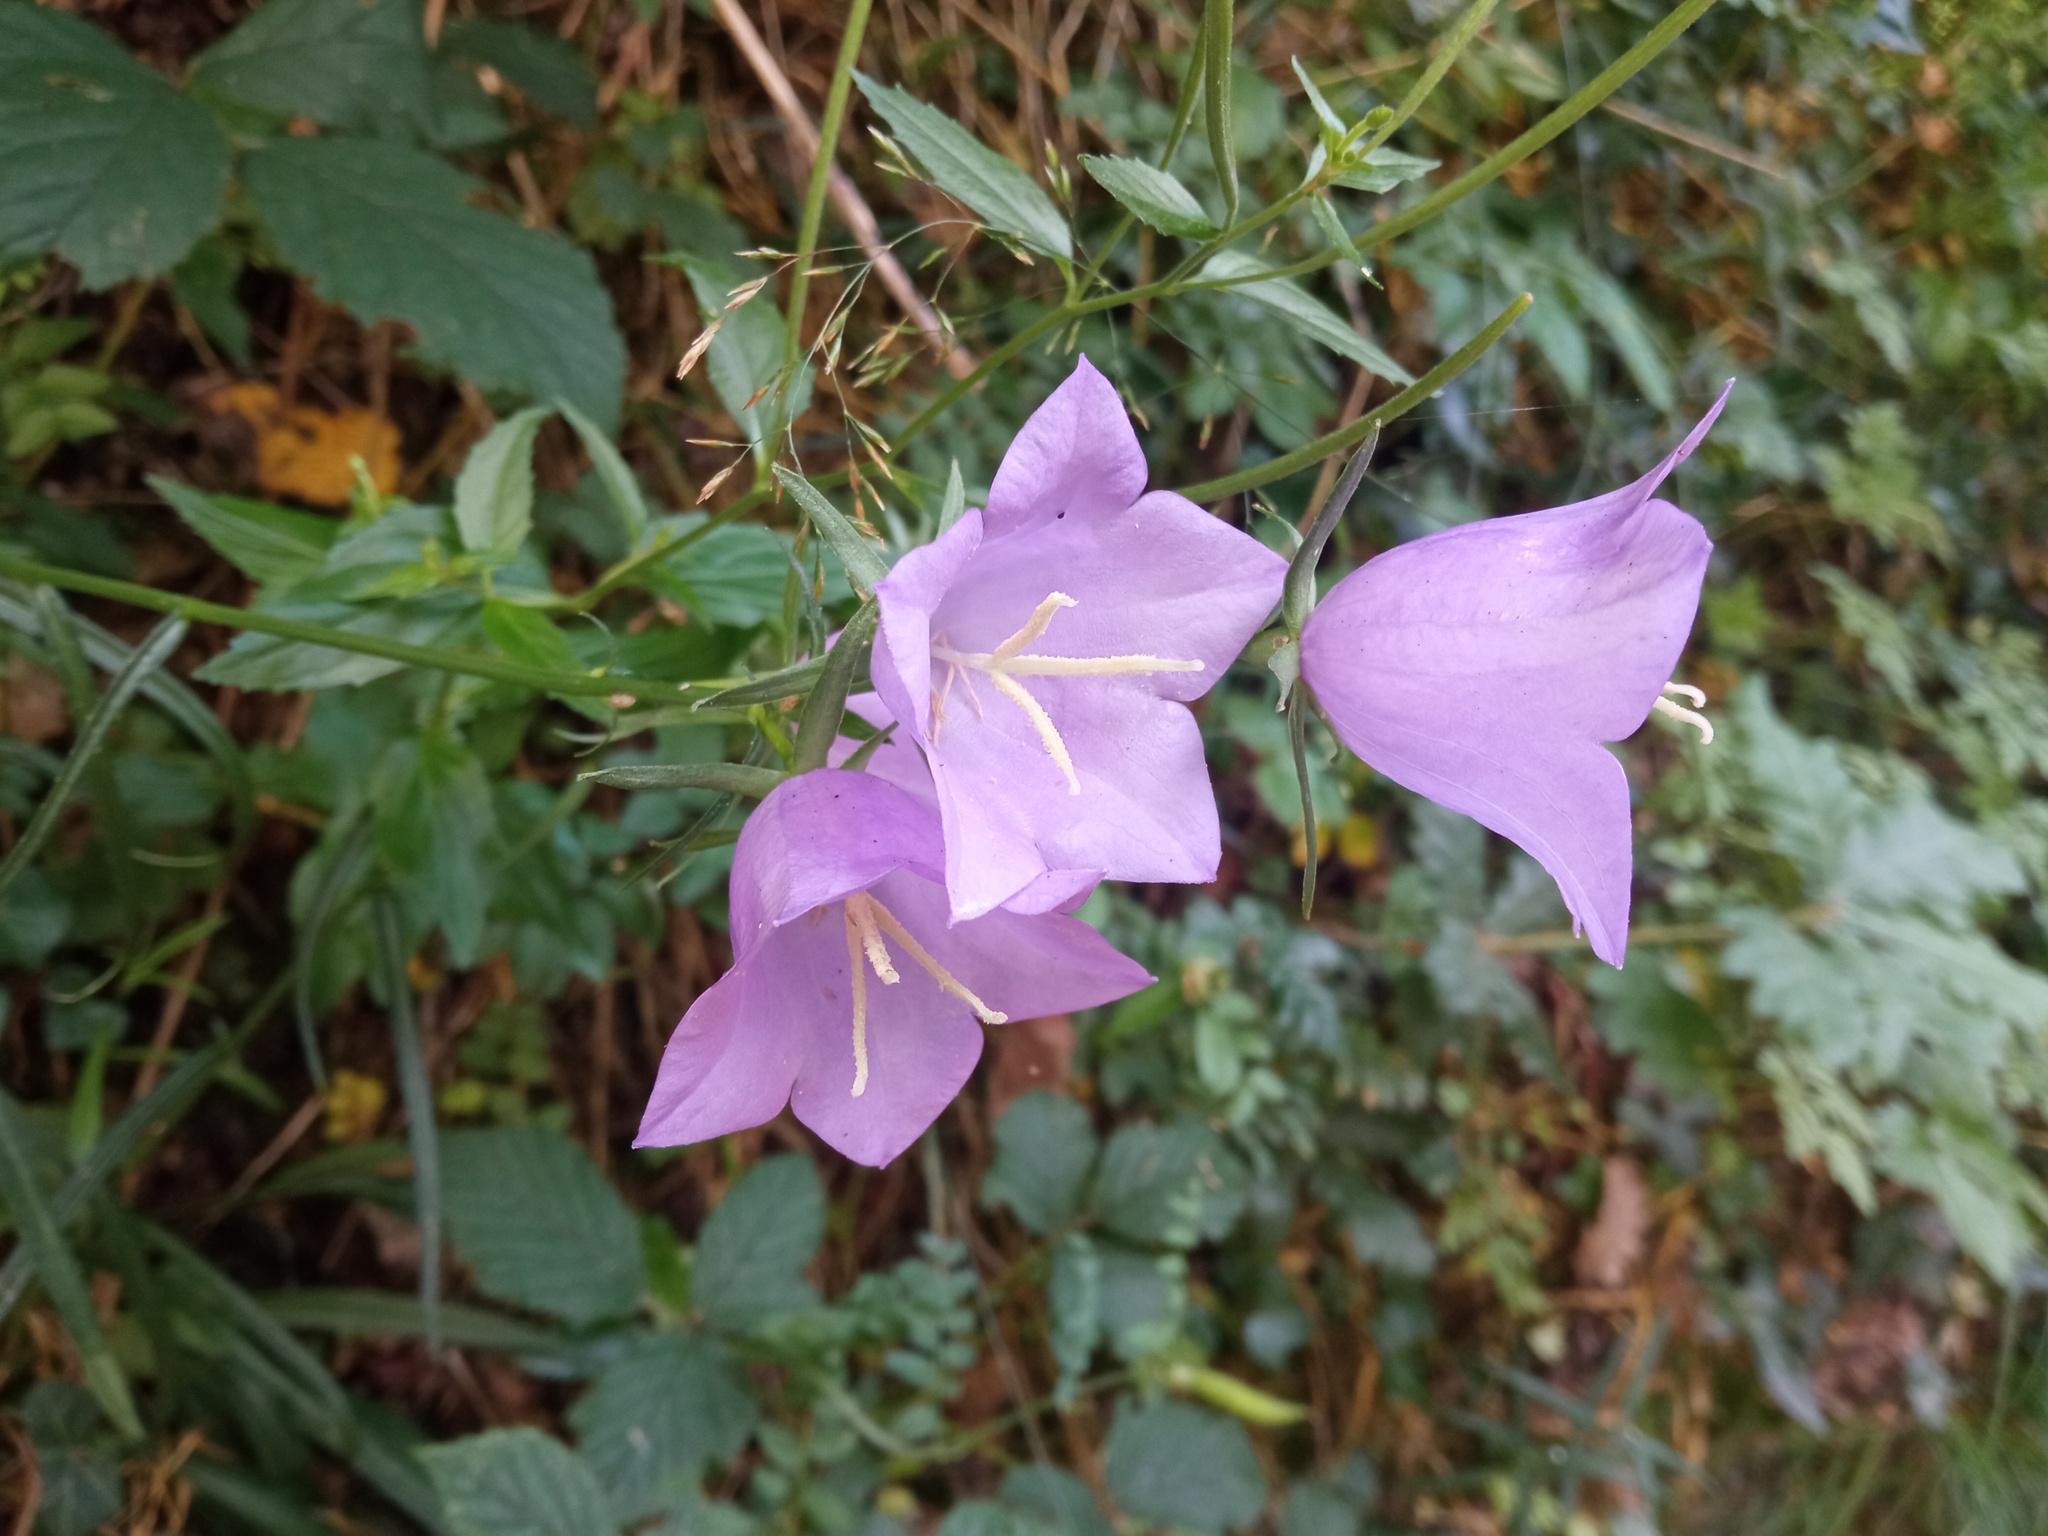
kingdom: Plantae
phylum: Tracheophyta
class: Magnoliopsida
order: Asterales
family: Campanulaceae
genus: Campanula
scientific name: Campanula persicifolia
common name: Peach-leaved bellflower
